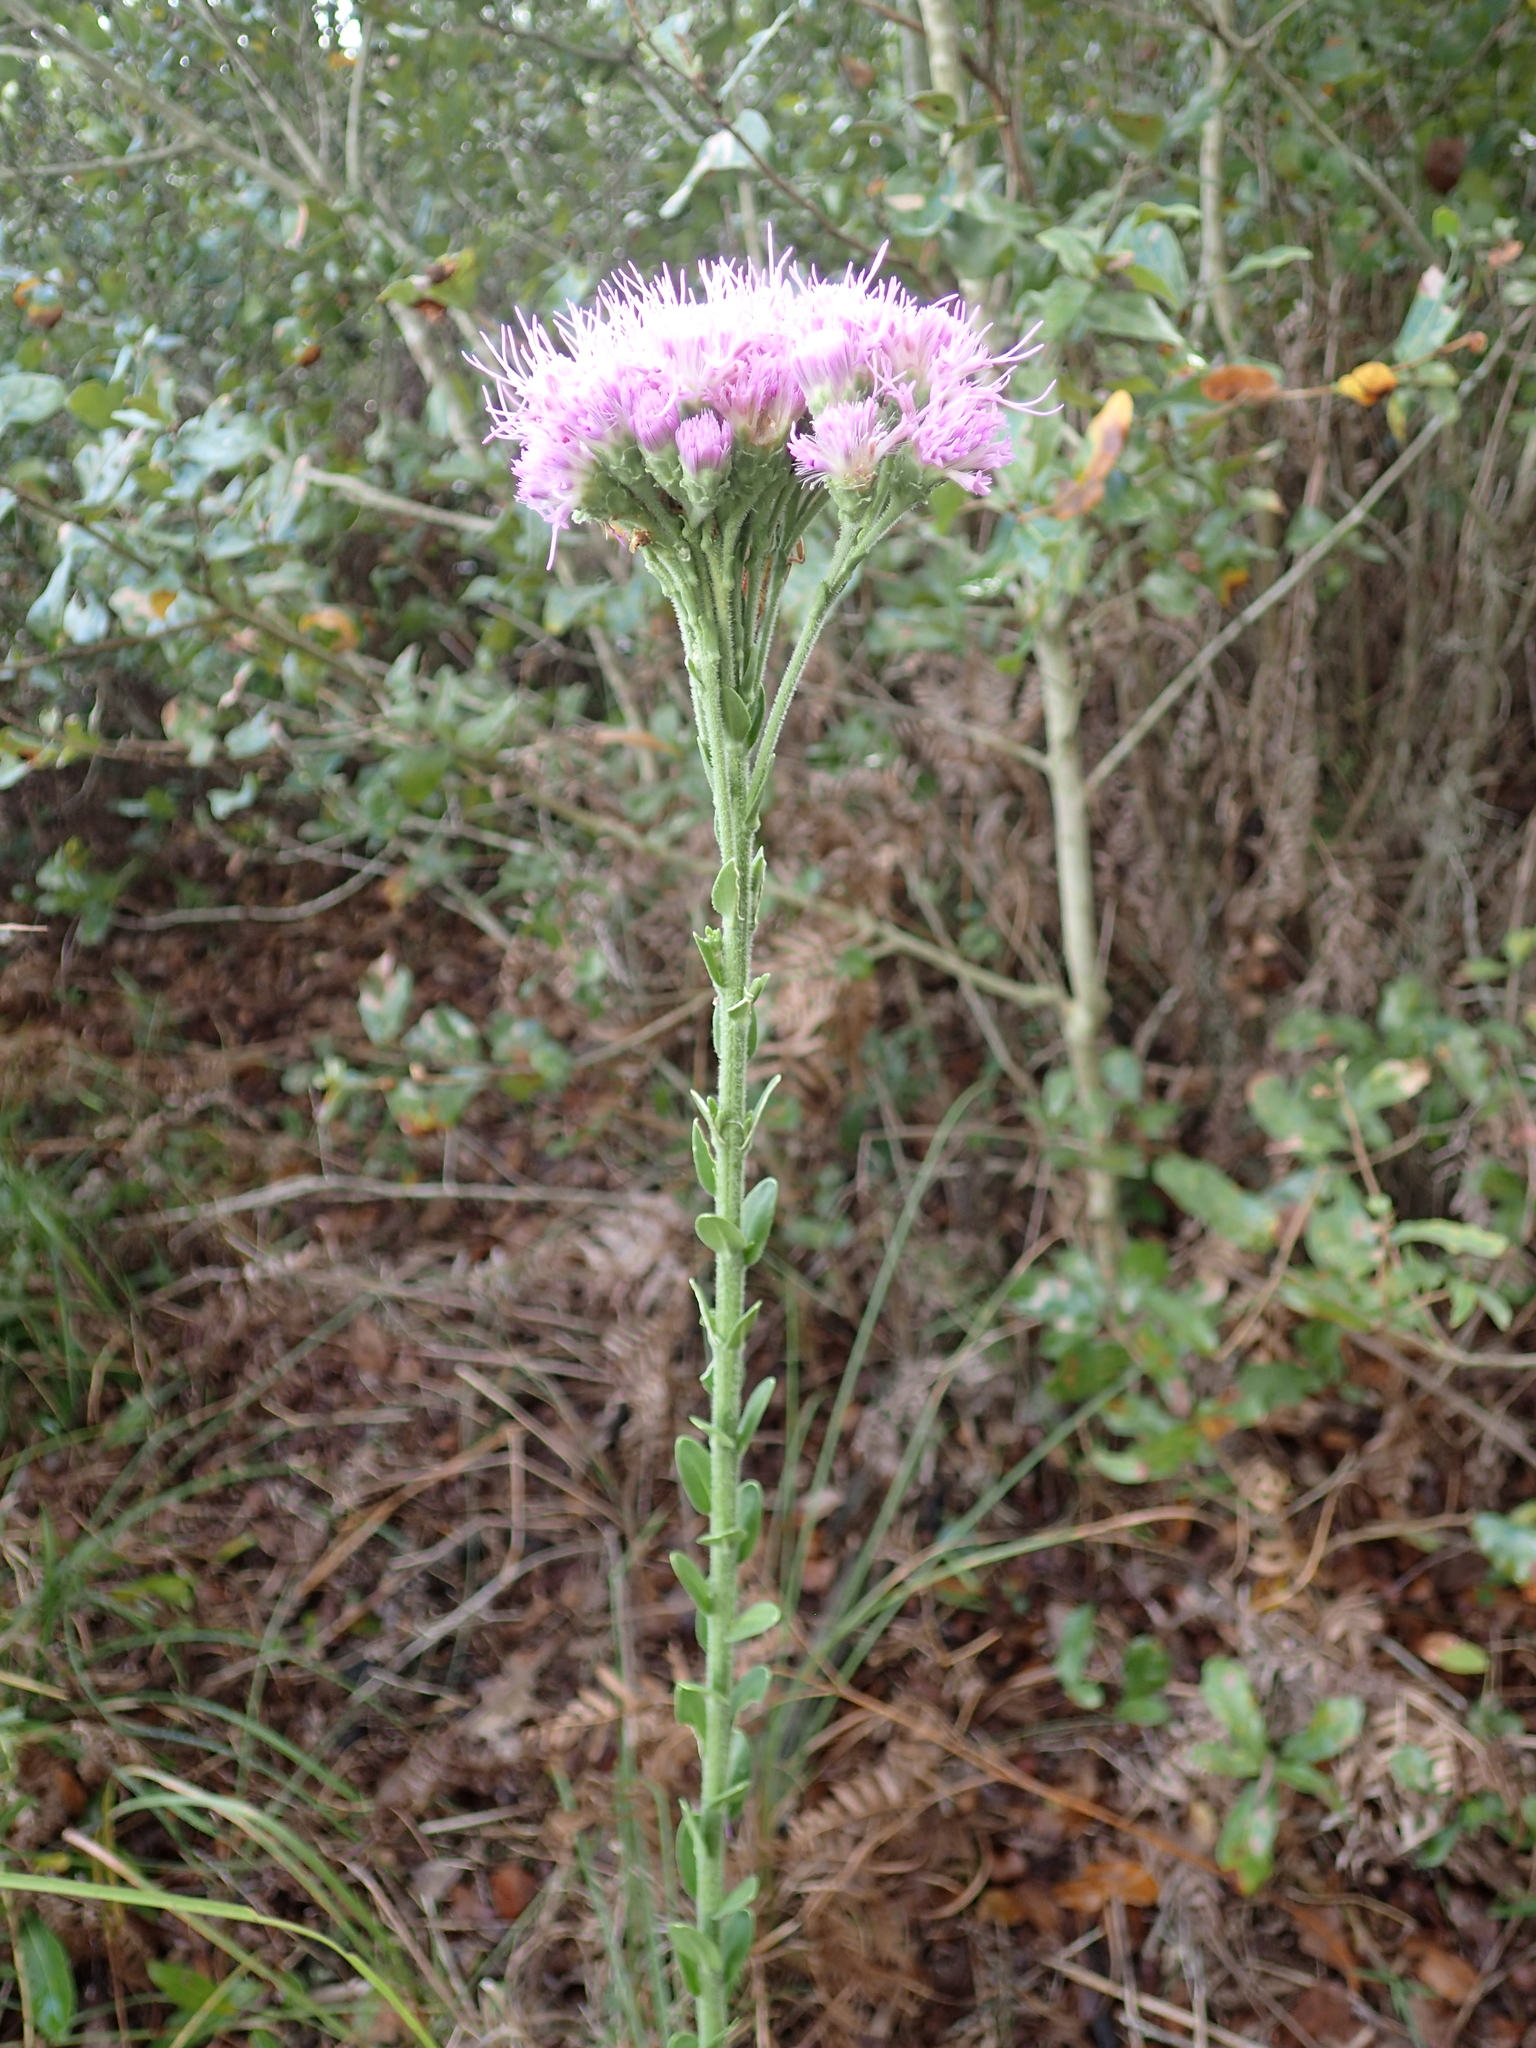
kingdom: Plantae
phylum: Tracheophyta
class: Magnoliopsida
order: Asterales
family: Asteraceae
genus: Carphephorus
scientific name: Carphephorus corymbosus
